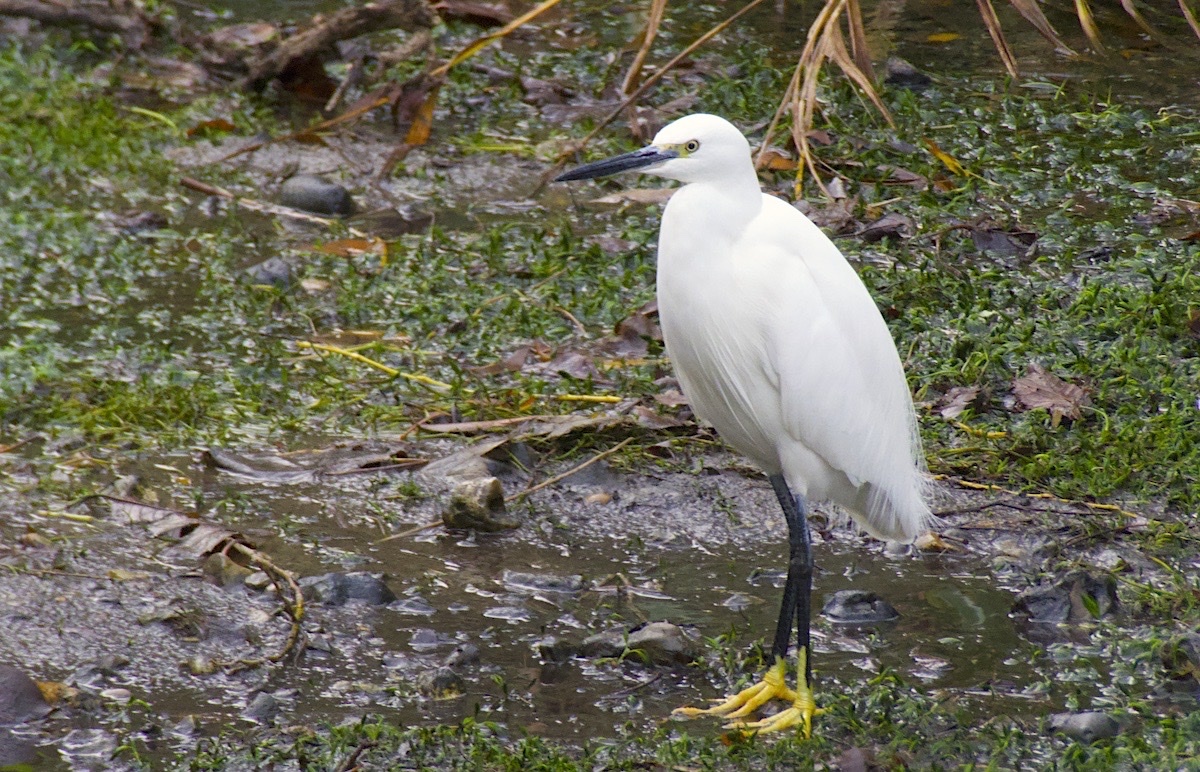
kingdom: Animalia
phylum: Chordata
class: Aves
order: Pelecaniformes
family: Ardeidae
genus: Egretta
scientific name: Egretta garzetta
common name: Little egret
